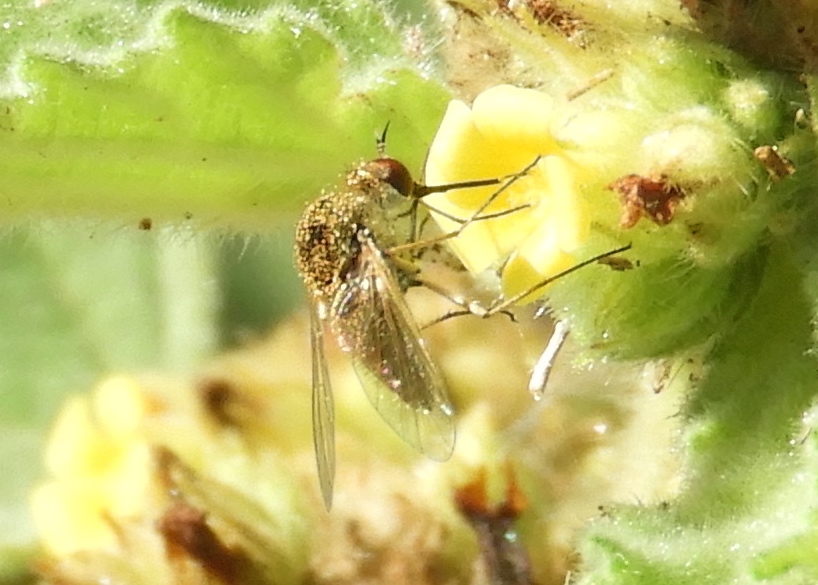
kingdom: Animalia
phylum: Arthropoda
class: Insecta
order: Diptera
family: Bombyliidae
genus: Geron
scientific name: Geron
